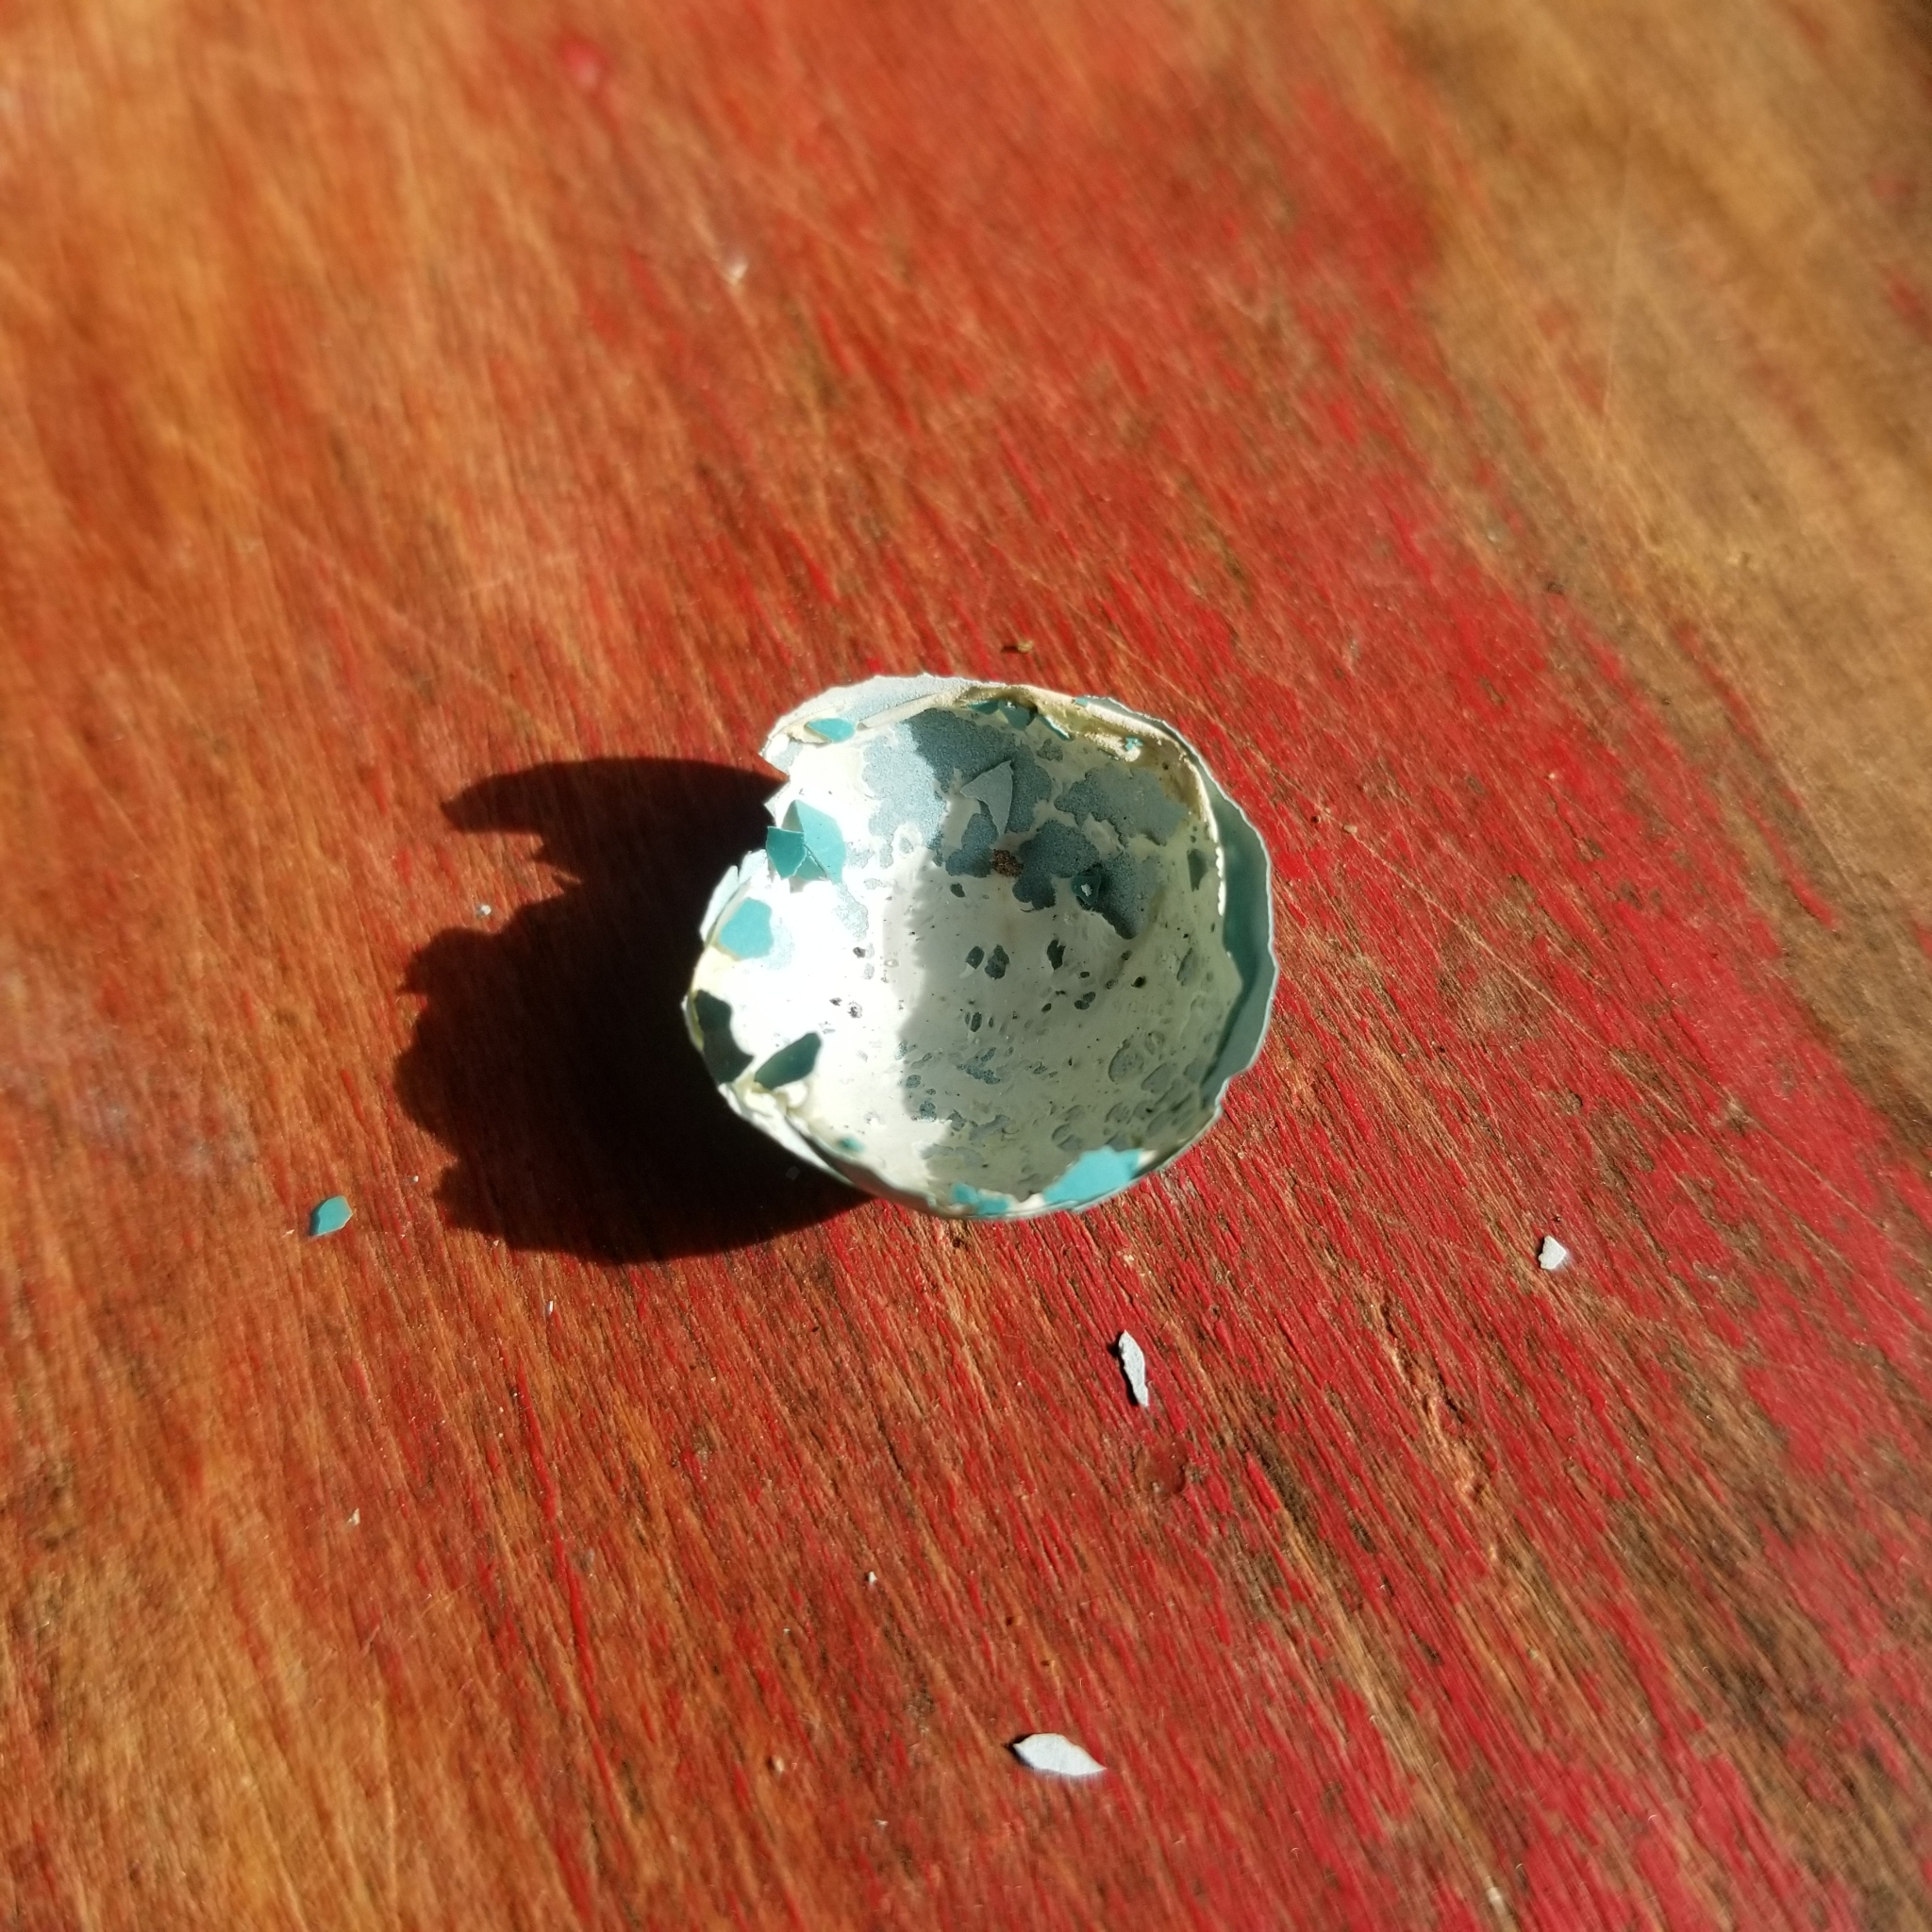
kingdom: Animalia
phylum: Chordata
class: Aves
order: Passeriformes
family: Turdidae
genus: Turdus
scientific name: Turdus migratorius
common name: American robin
